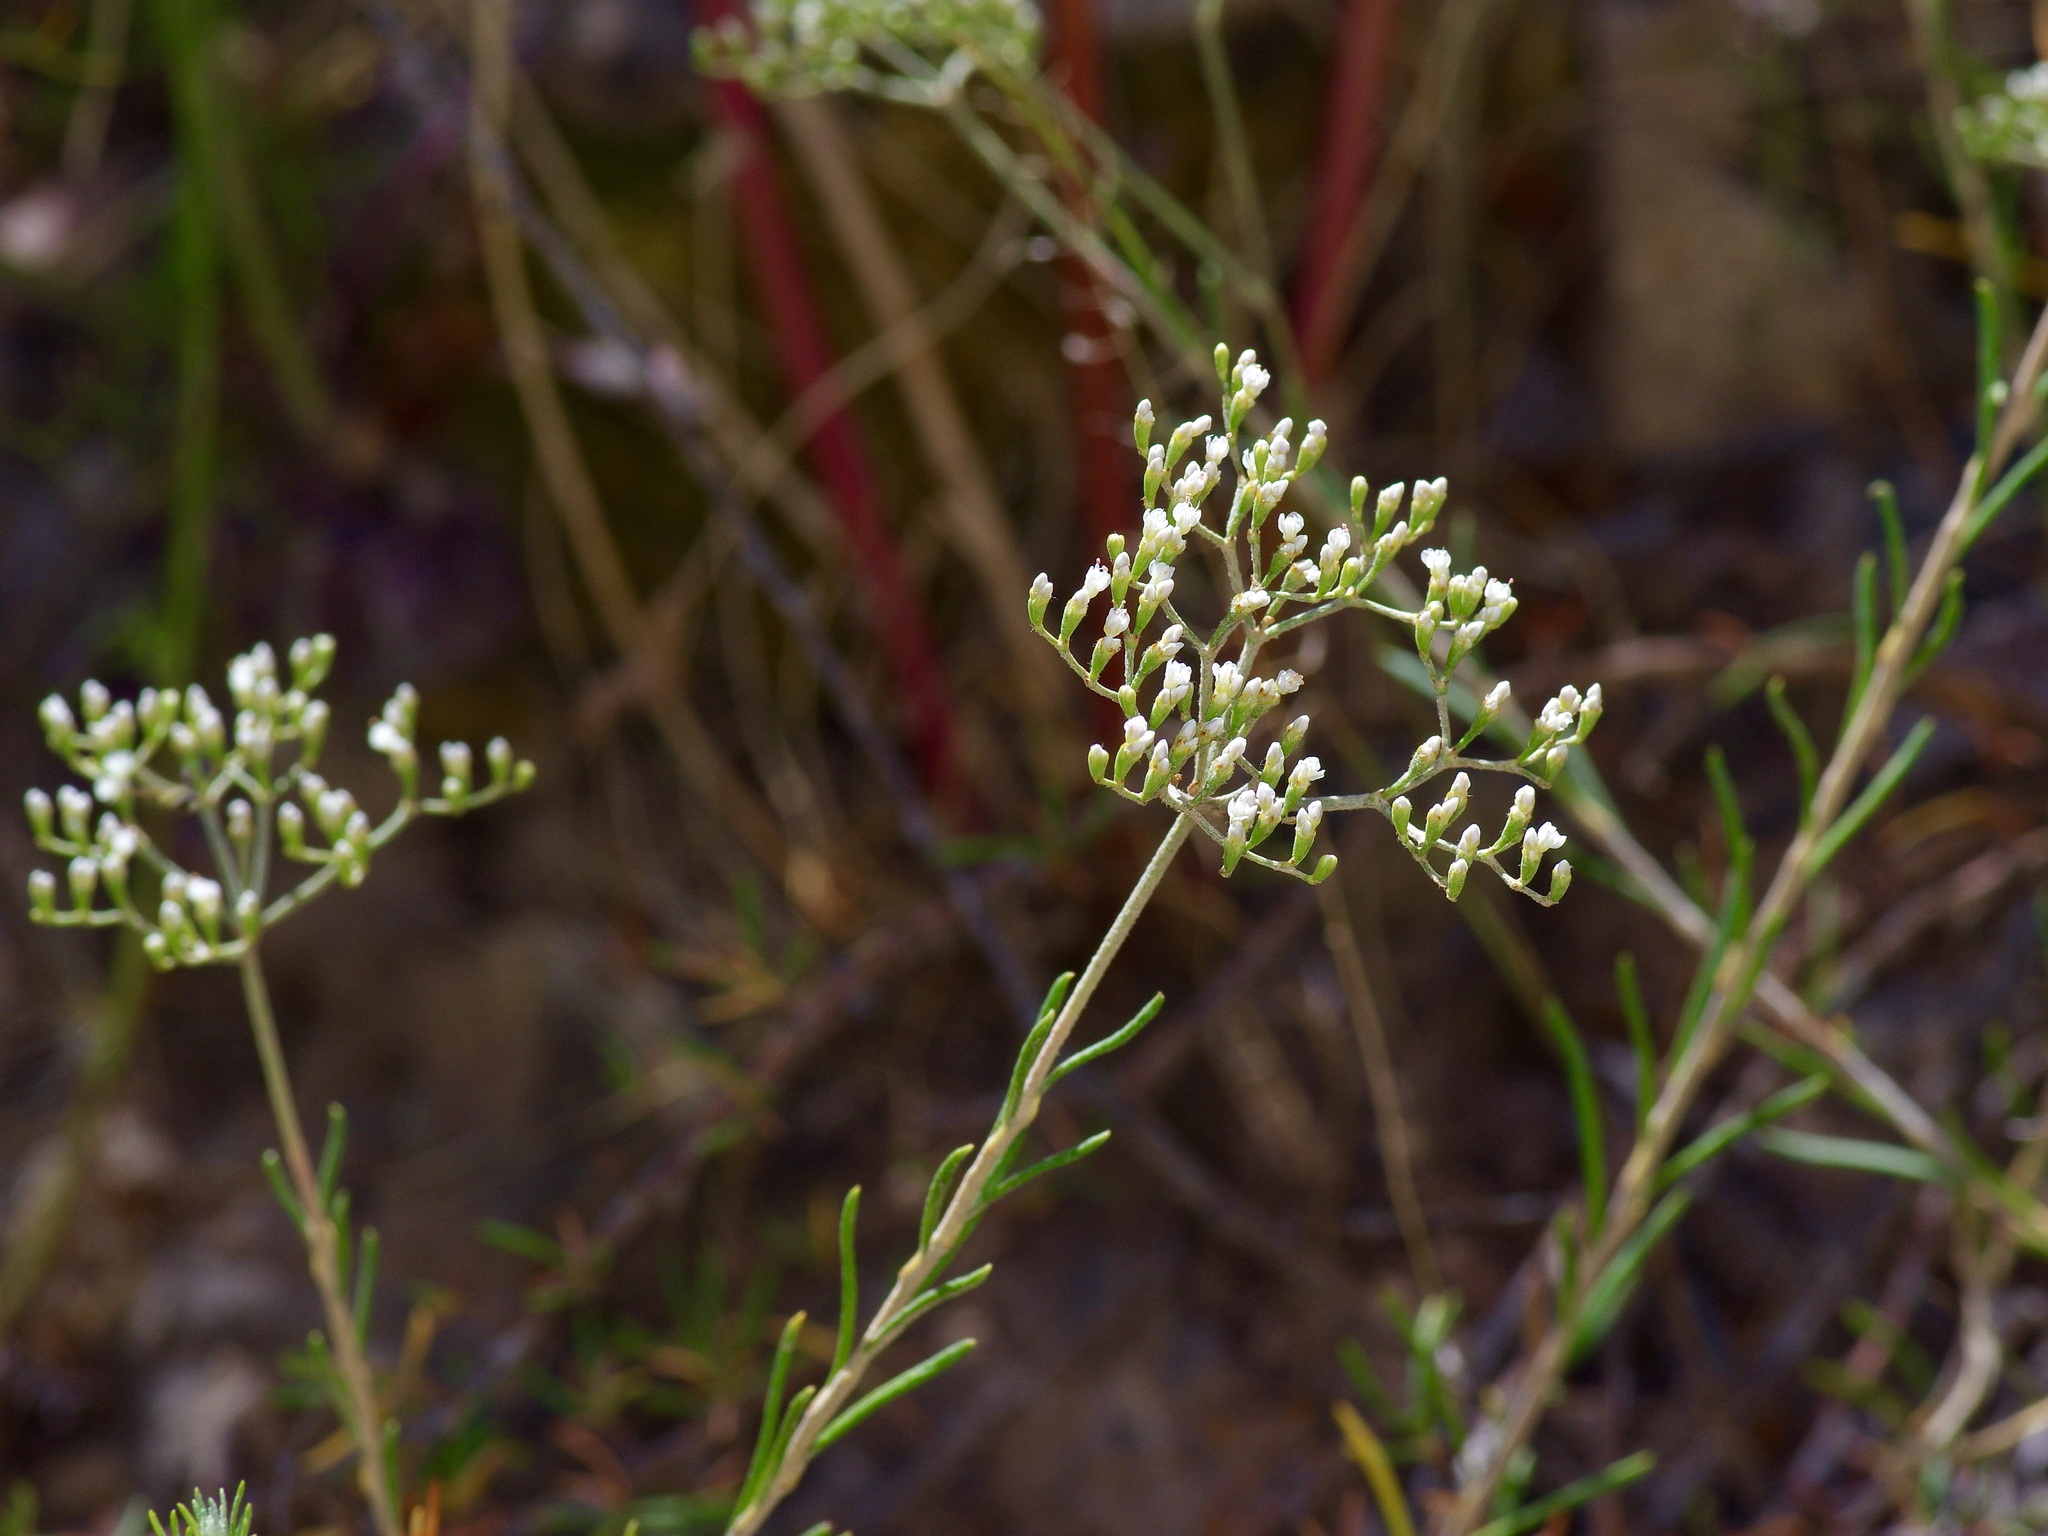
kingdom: Plantae
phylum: Tracheophyta
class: Magnoliopsida
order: Caryophyllales
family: Polygonaceae
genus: Eriogonum
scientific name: Eriogonum microtheca
